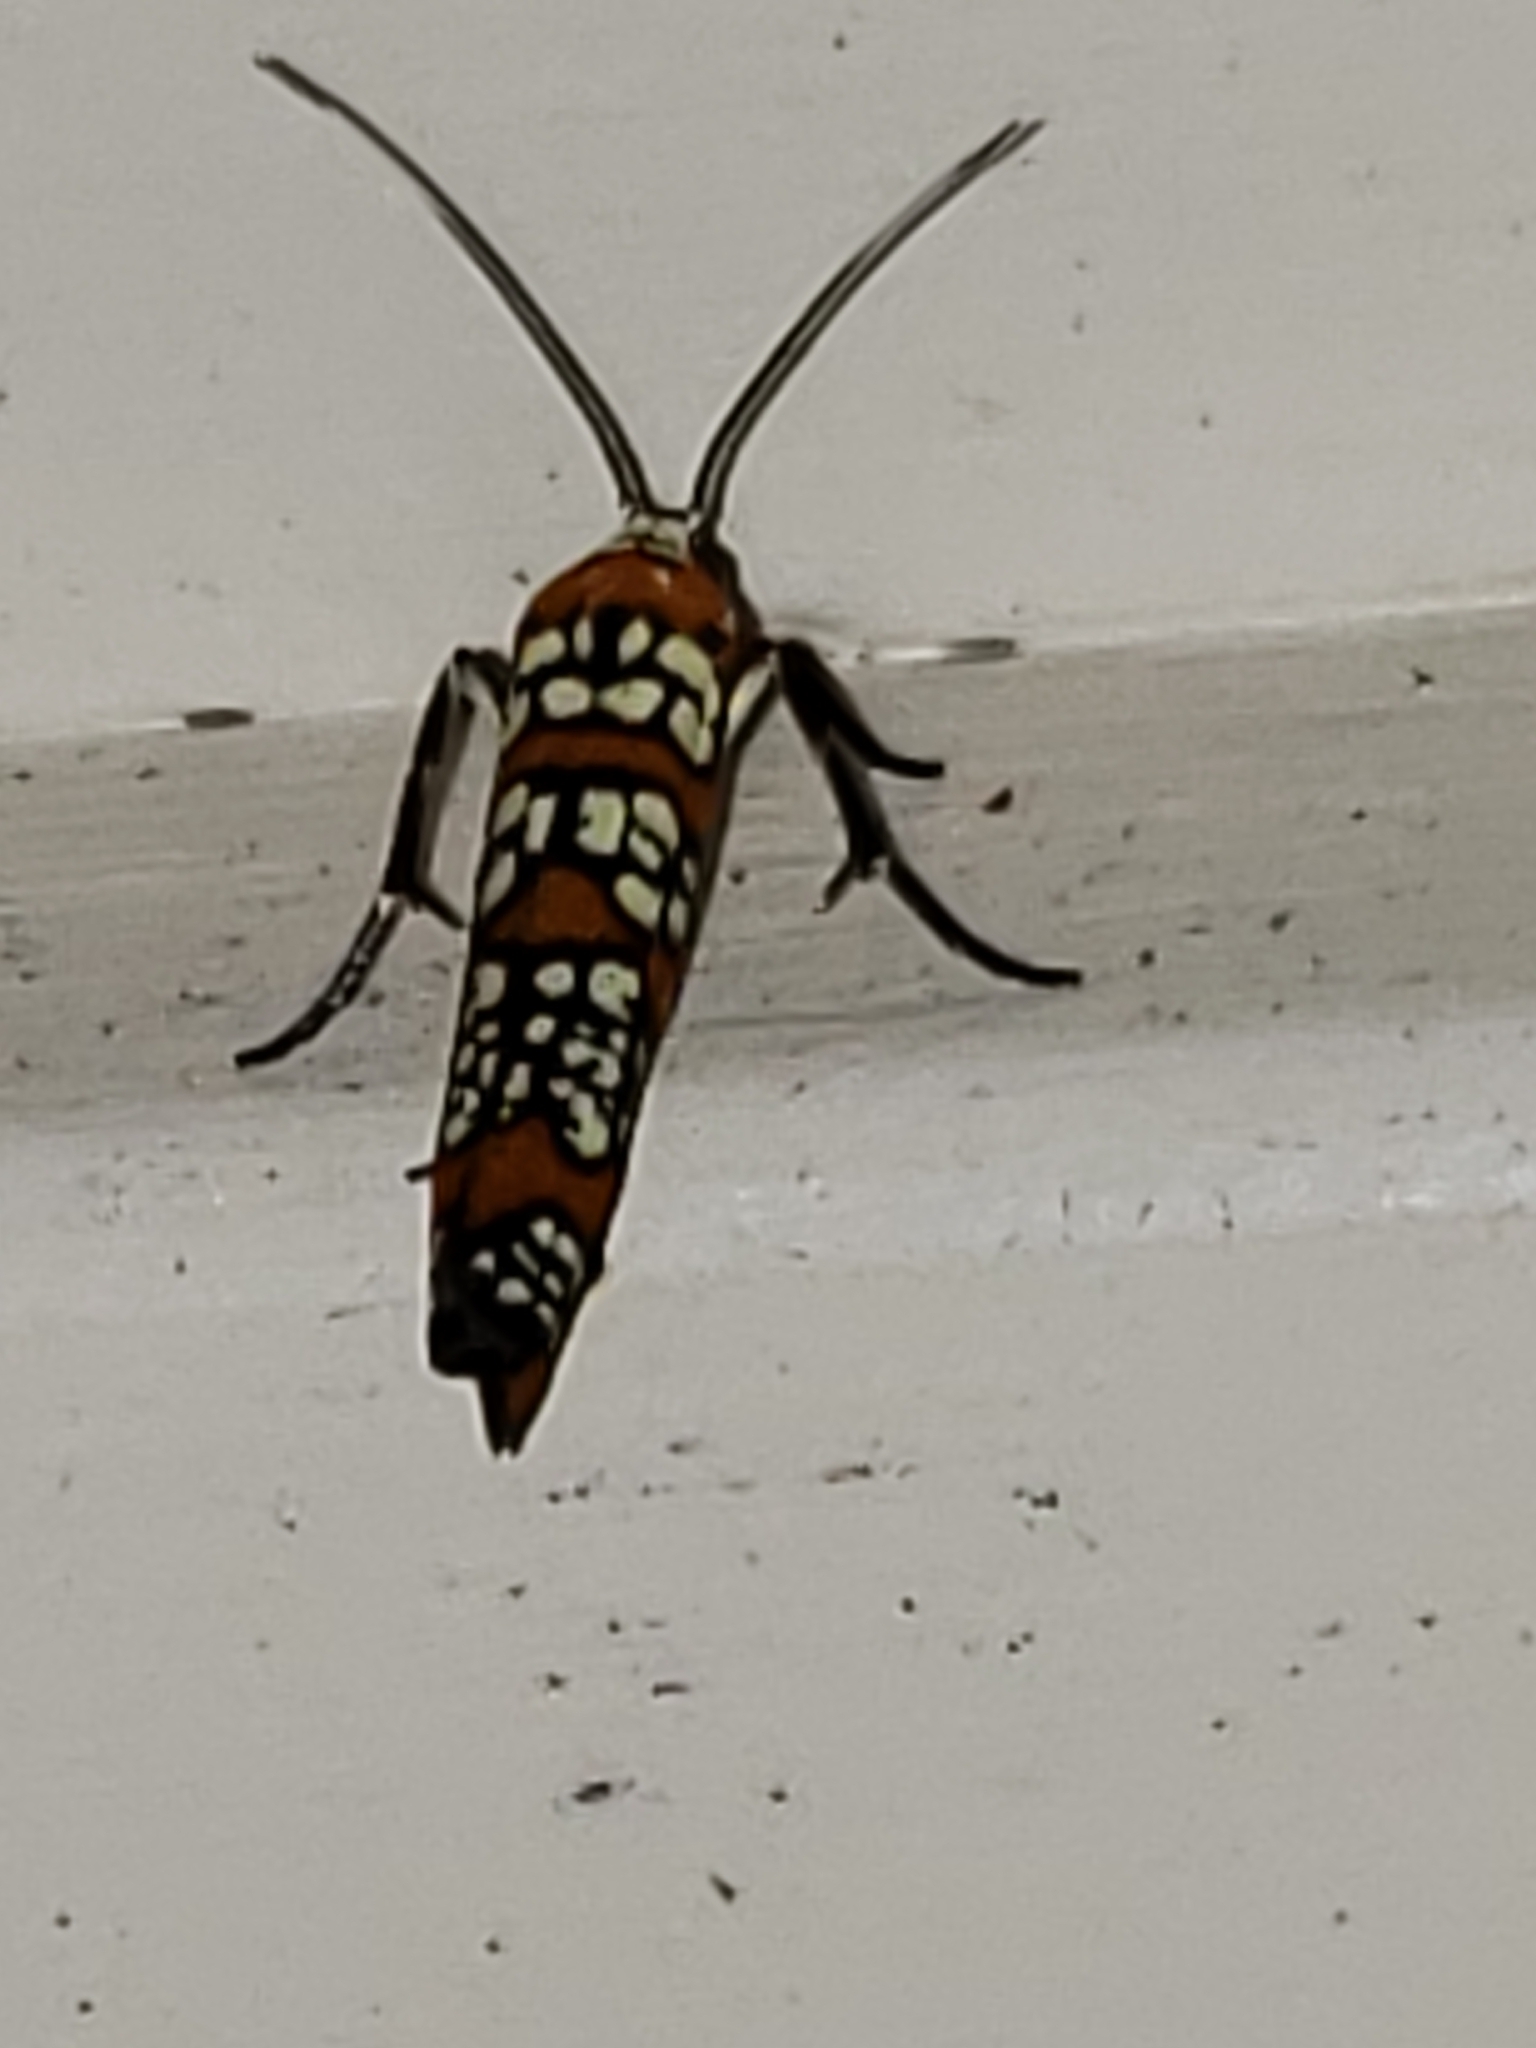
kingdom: Animalia
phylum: Arthropoda
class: Insecta
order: Lepidoptera
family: Attevidae
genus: Atteva
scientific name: Atteva punctella
